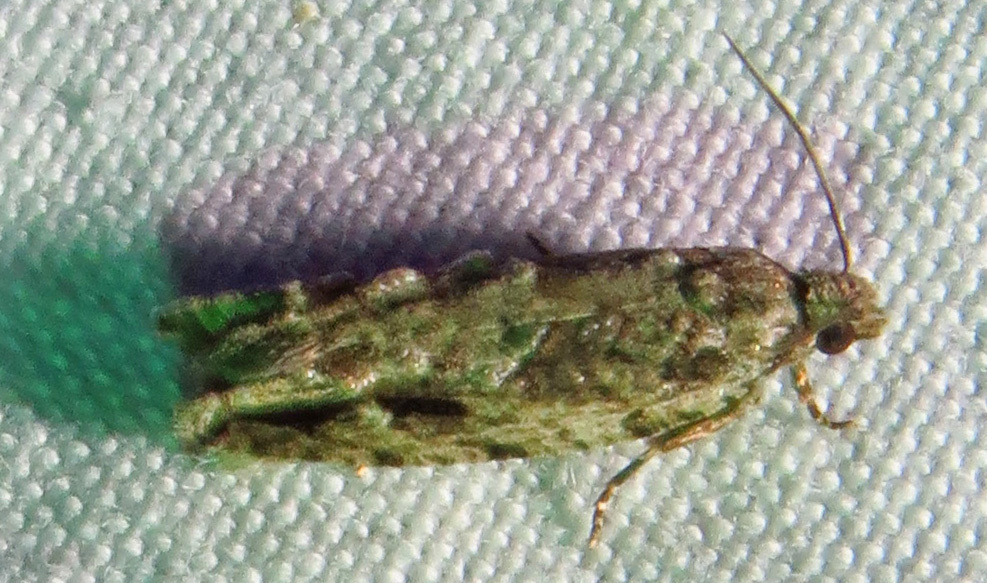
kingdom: Animalia
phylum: Arthropoda
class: Insecta
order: Lepidoptera
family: Tortricidae
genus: Proteoteras
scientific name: Proteoteras aesculana
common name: Maple twig borer moth
